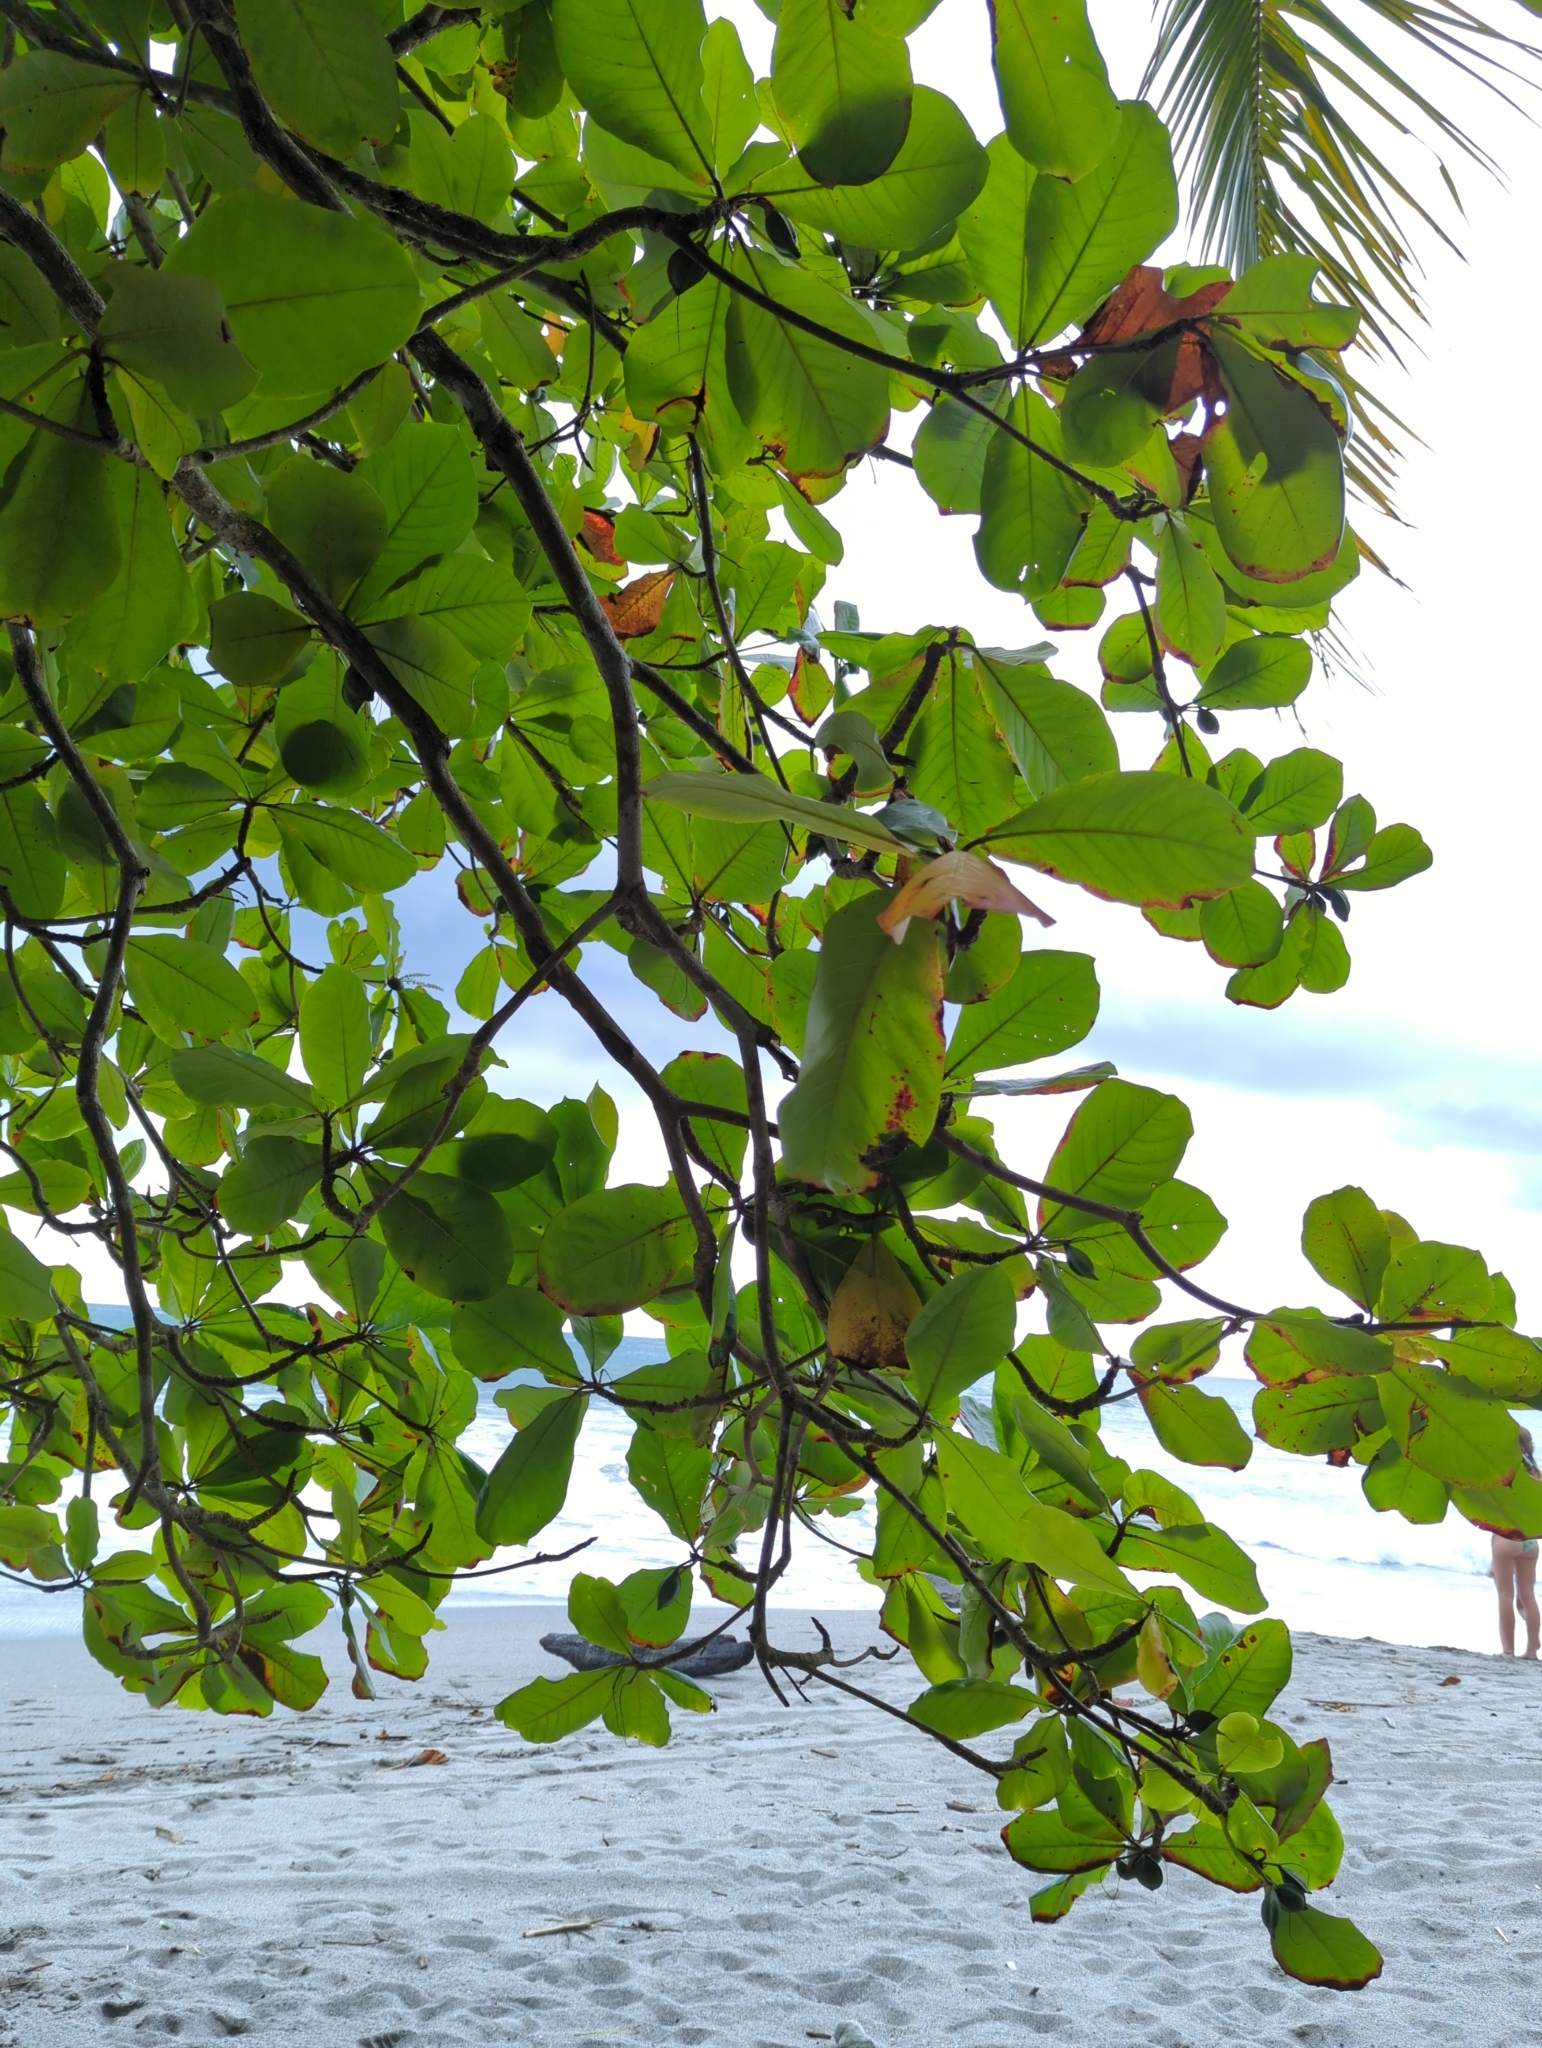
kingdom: Plantae
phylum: Tracheophyta
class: Magnoliopsida
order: Myrtales
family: Combretaceae
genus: Terminalia
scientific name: Terminalia catappa
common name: Tropical almond
